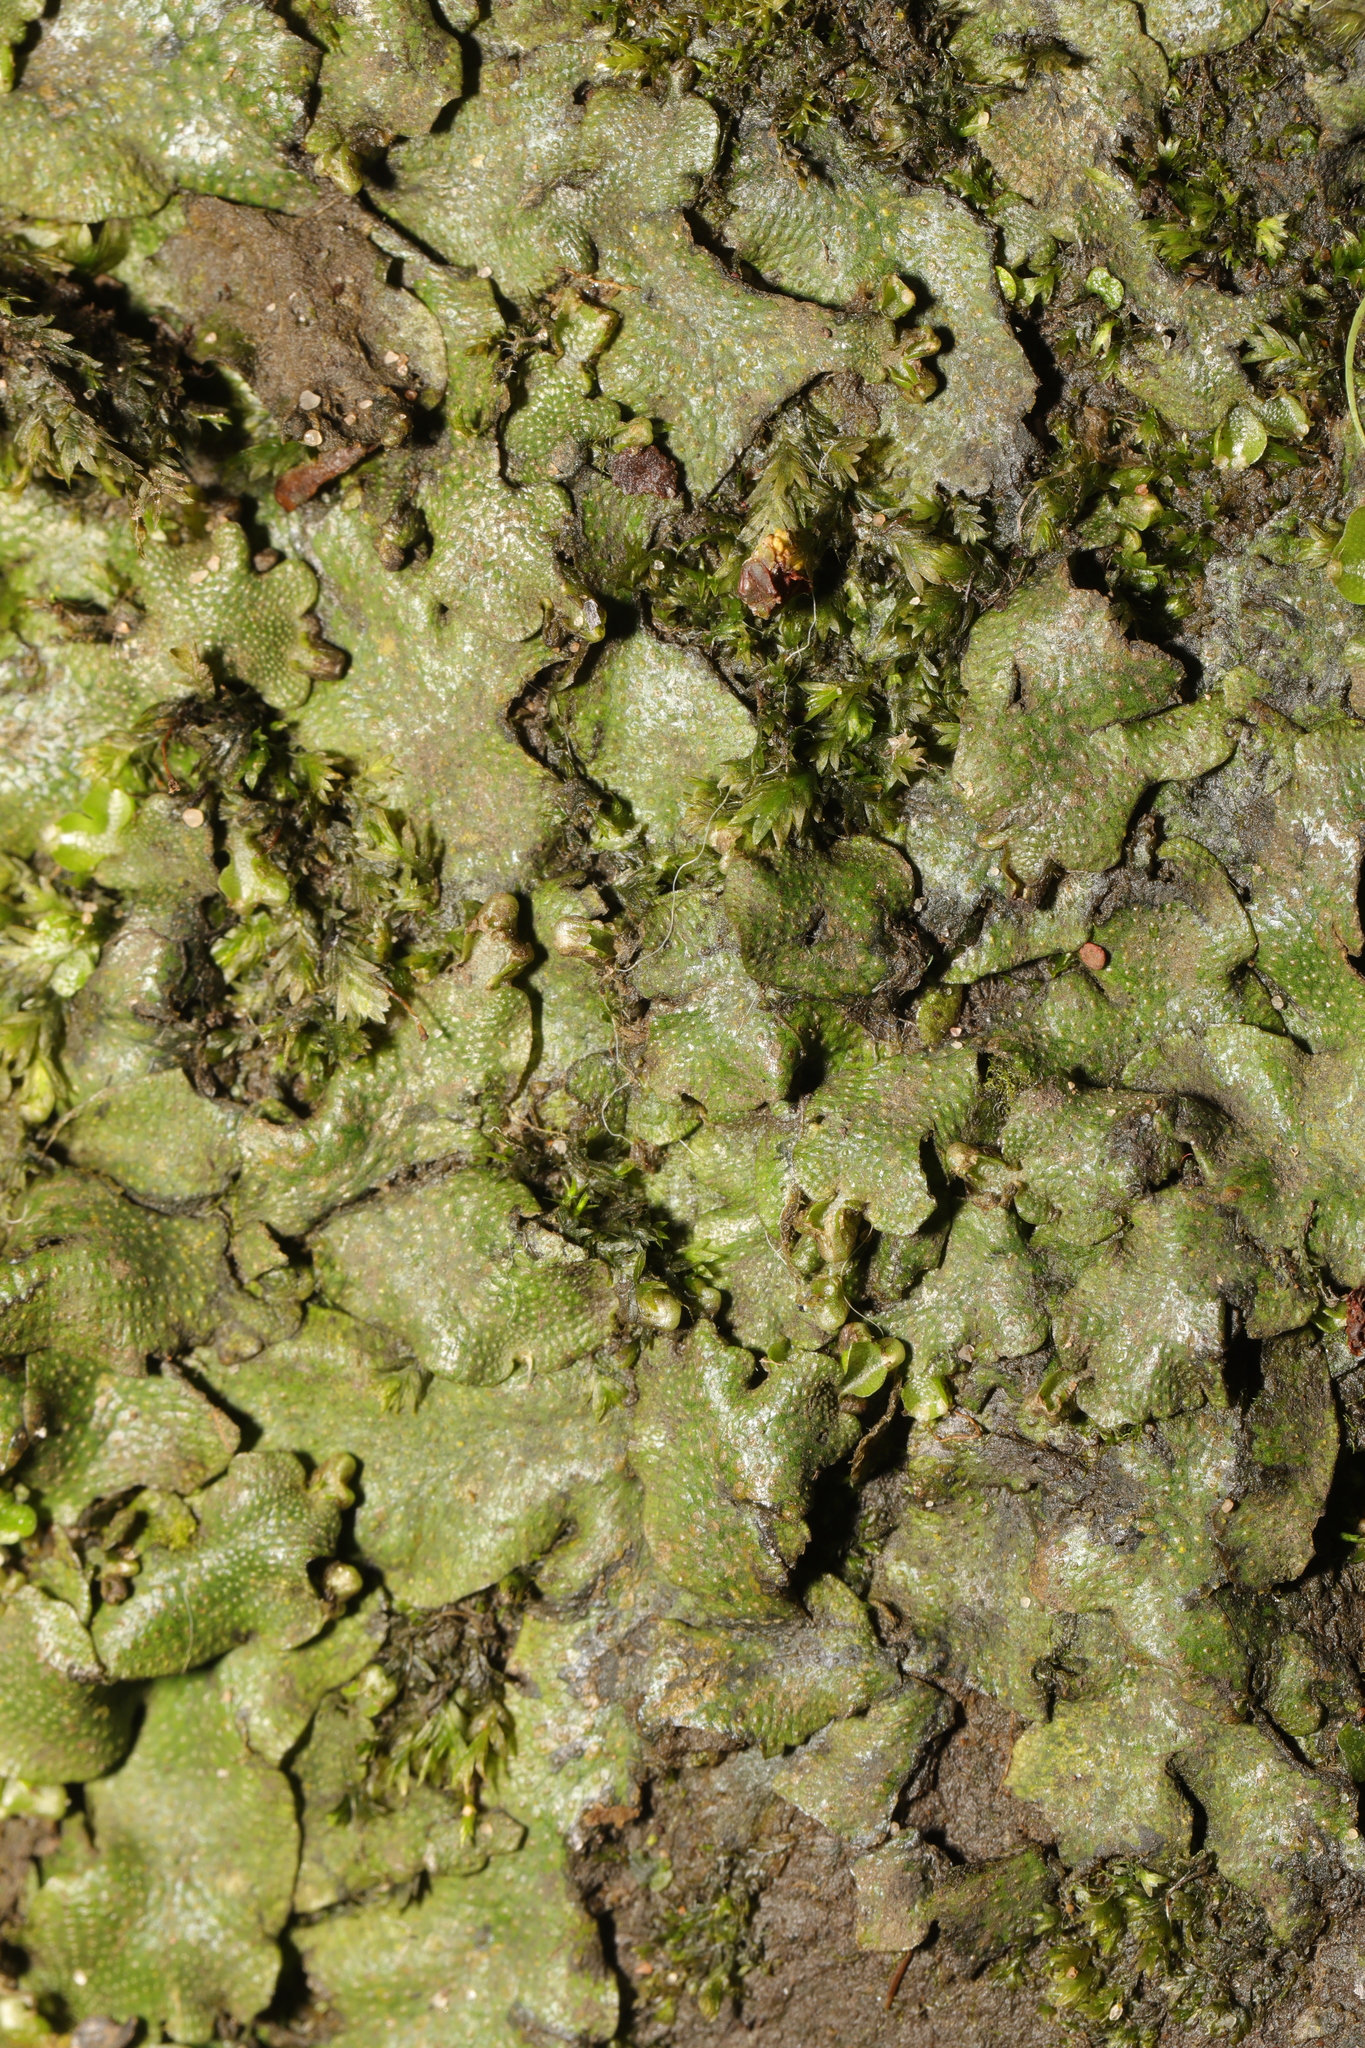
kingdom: Plantae
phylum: Marchantiophyta
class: Marchantiopsida
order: Marchantiales
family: Conocephalaceae
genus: Conocephalum
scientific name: Conocephalum conicum
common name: Great scented liverwort
